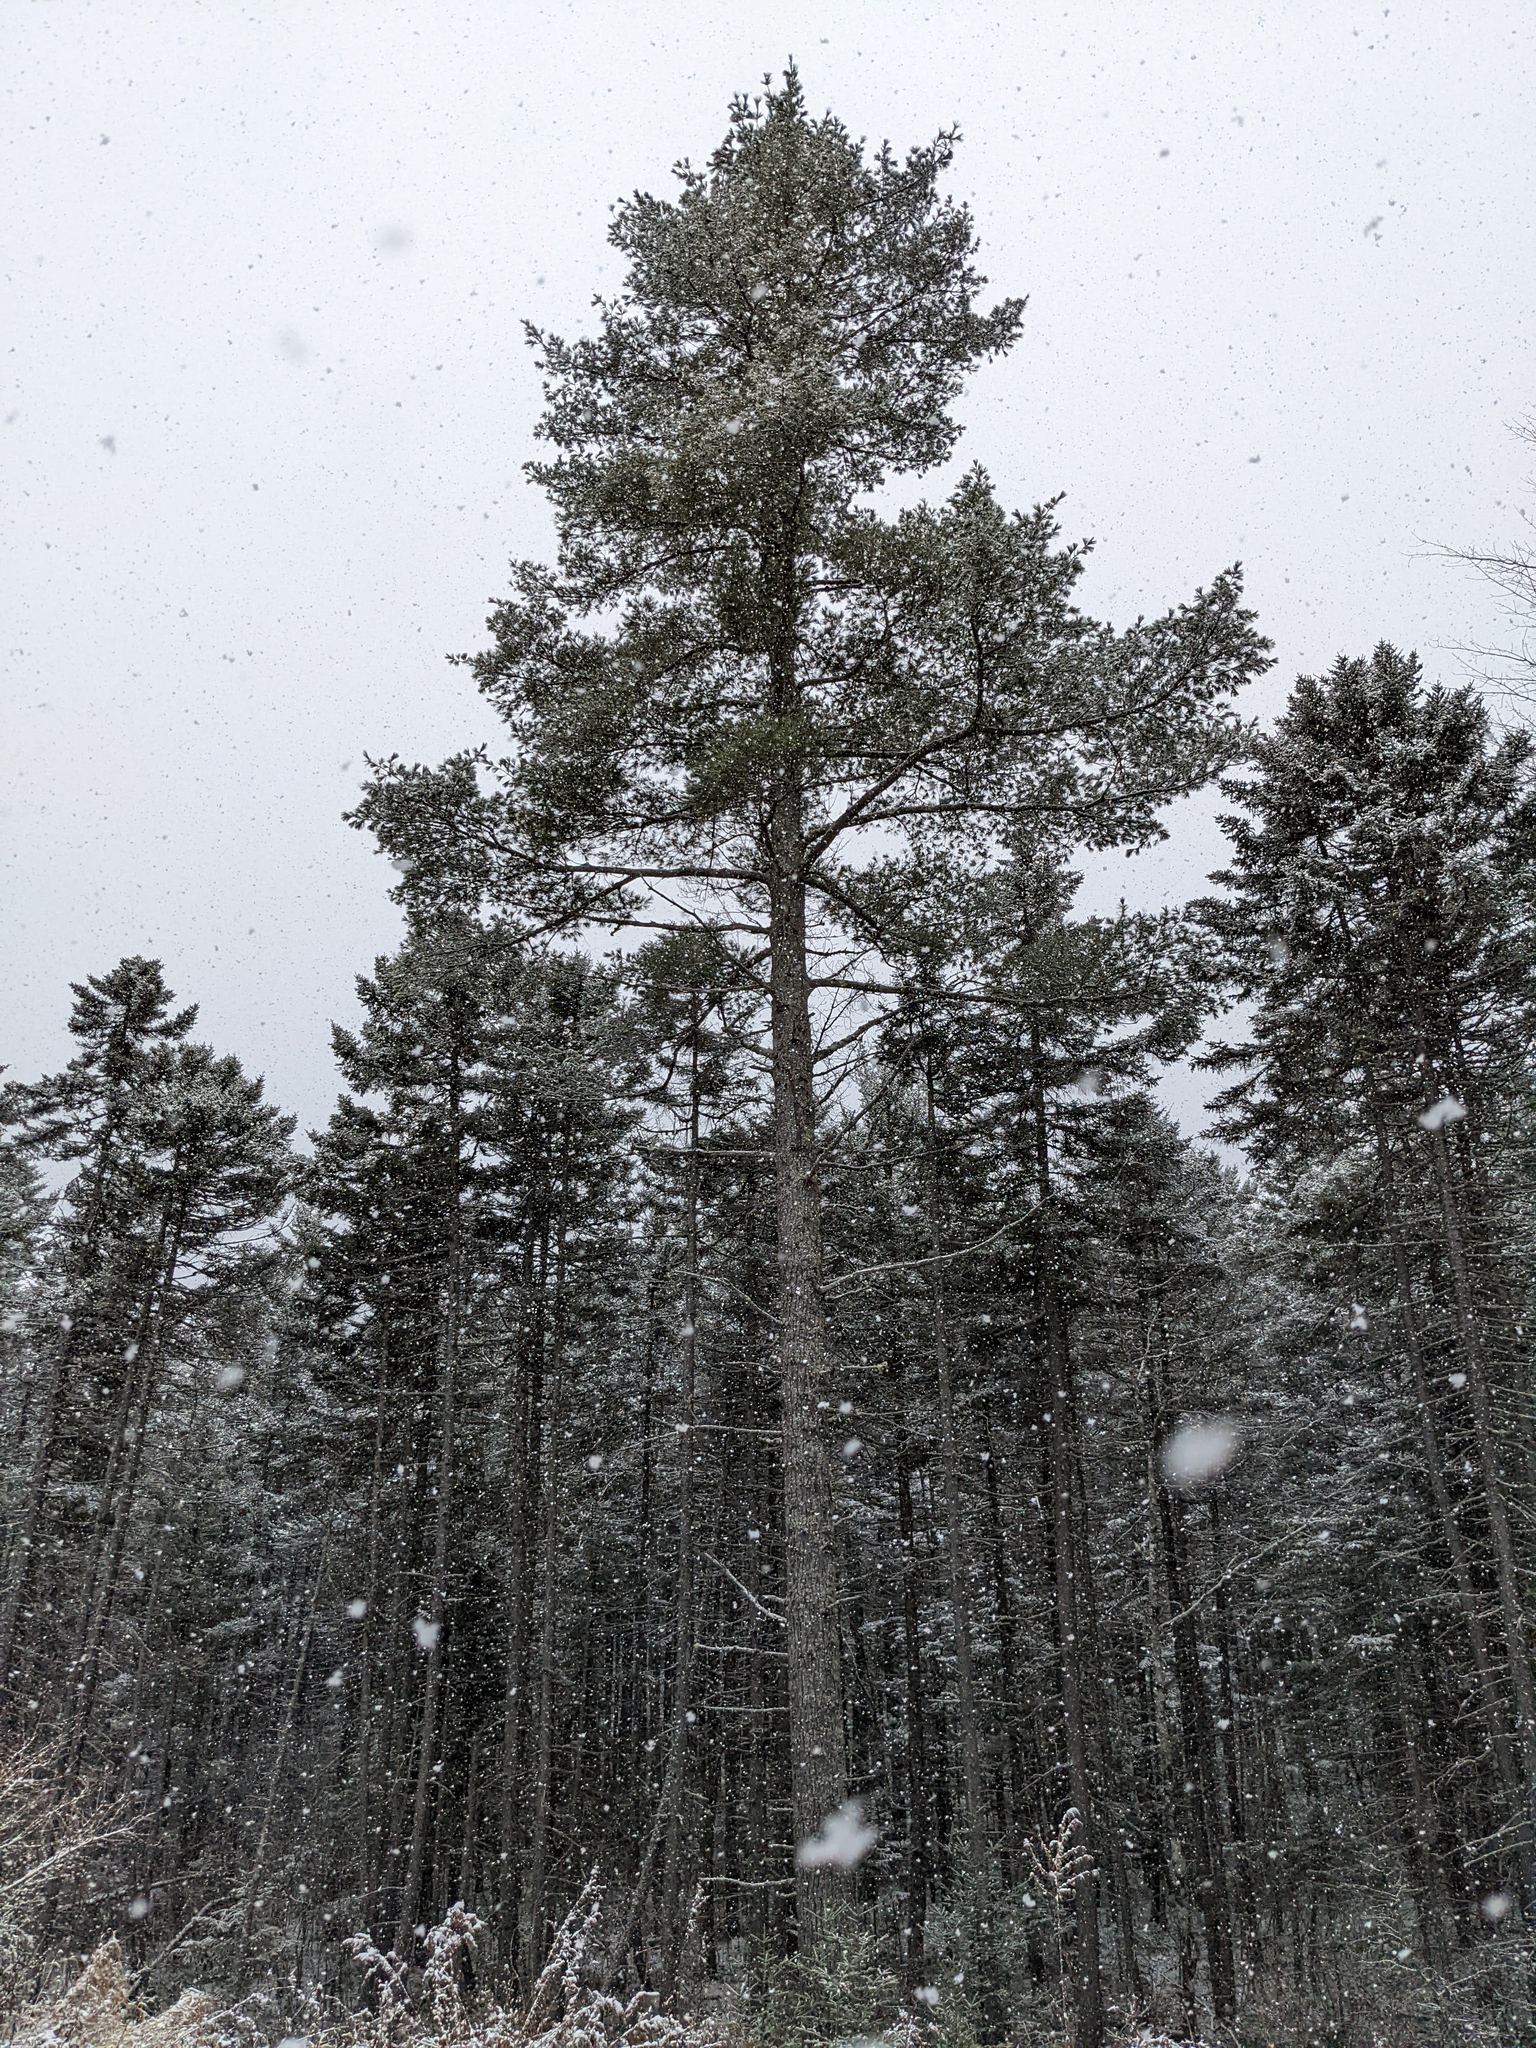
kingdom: Plantae
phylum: Tracheophyta
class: Pinopsida
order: Pinales
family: Pinaceae
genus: Pinus
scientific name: Pinus strobus
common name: Weymouth pine
